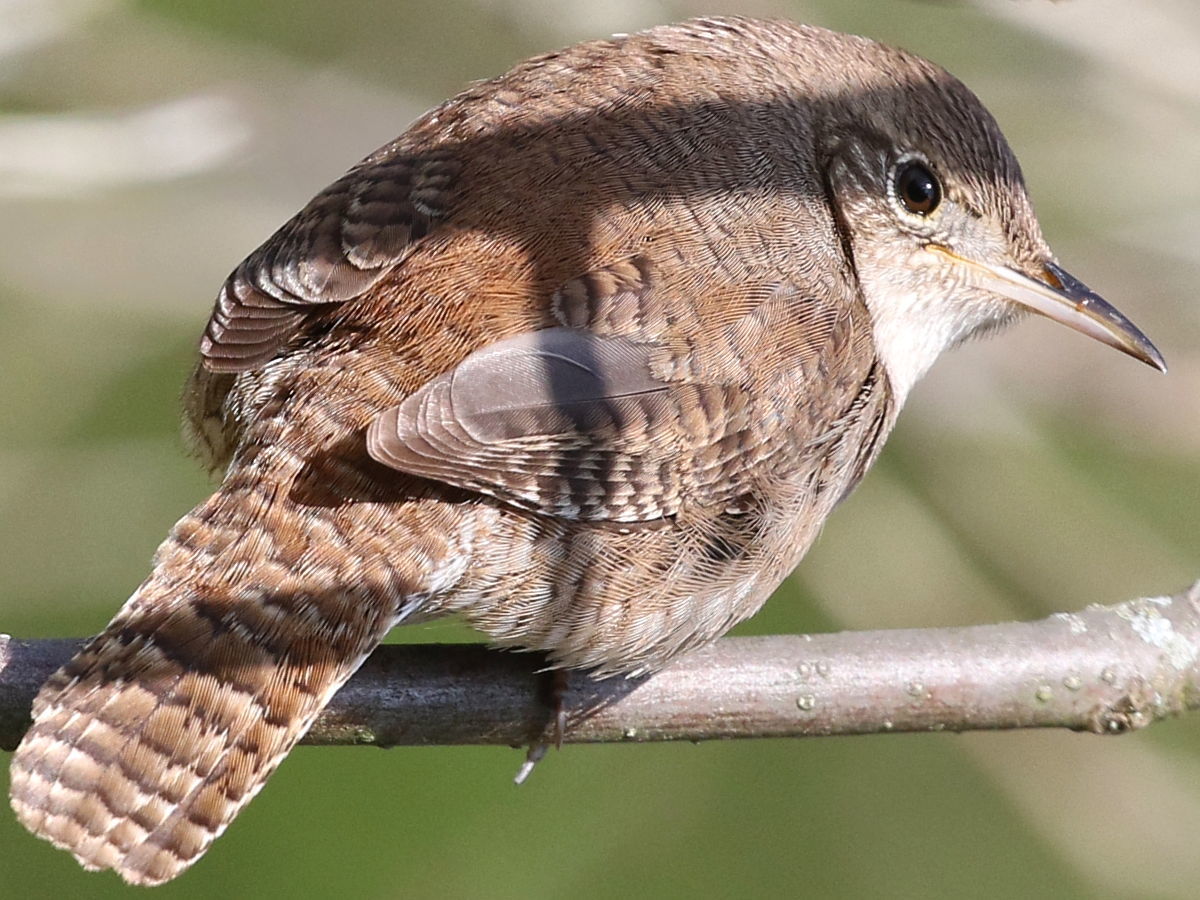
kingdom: Animalia
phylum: Chordata
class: Aves
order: Passeriformes
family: Troglodytidae
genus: Troglodytes
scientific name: Troglodytes aedon
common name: House wren
